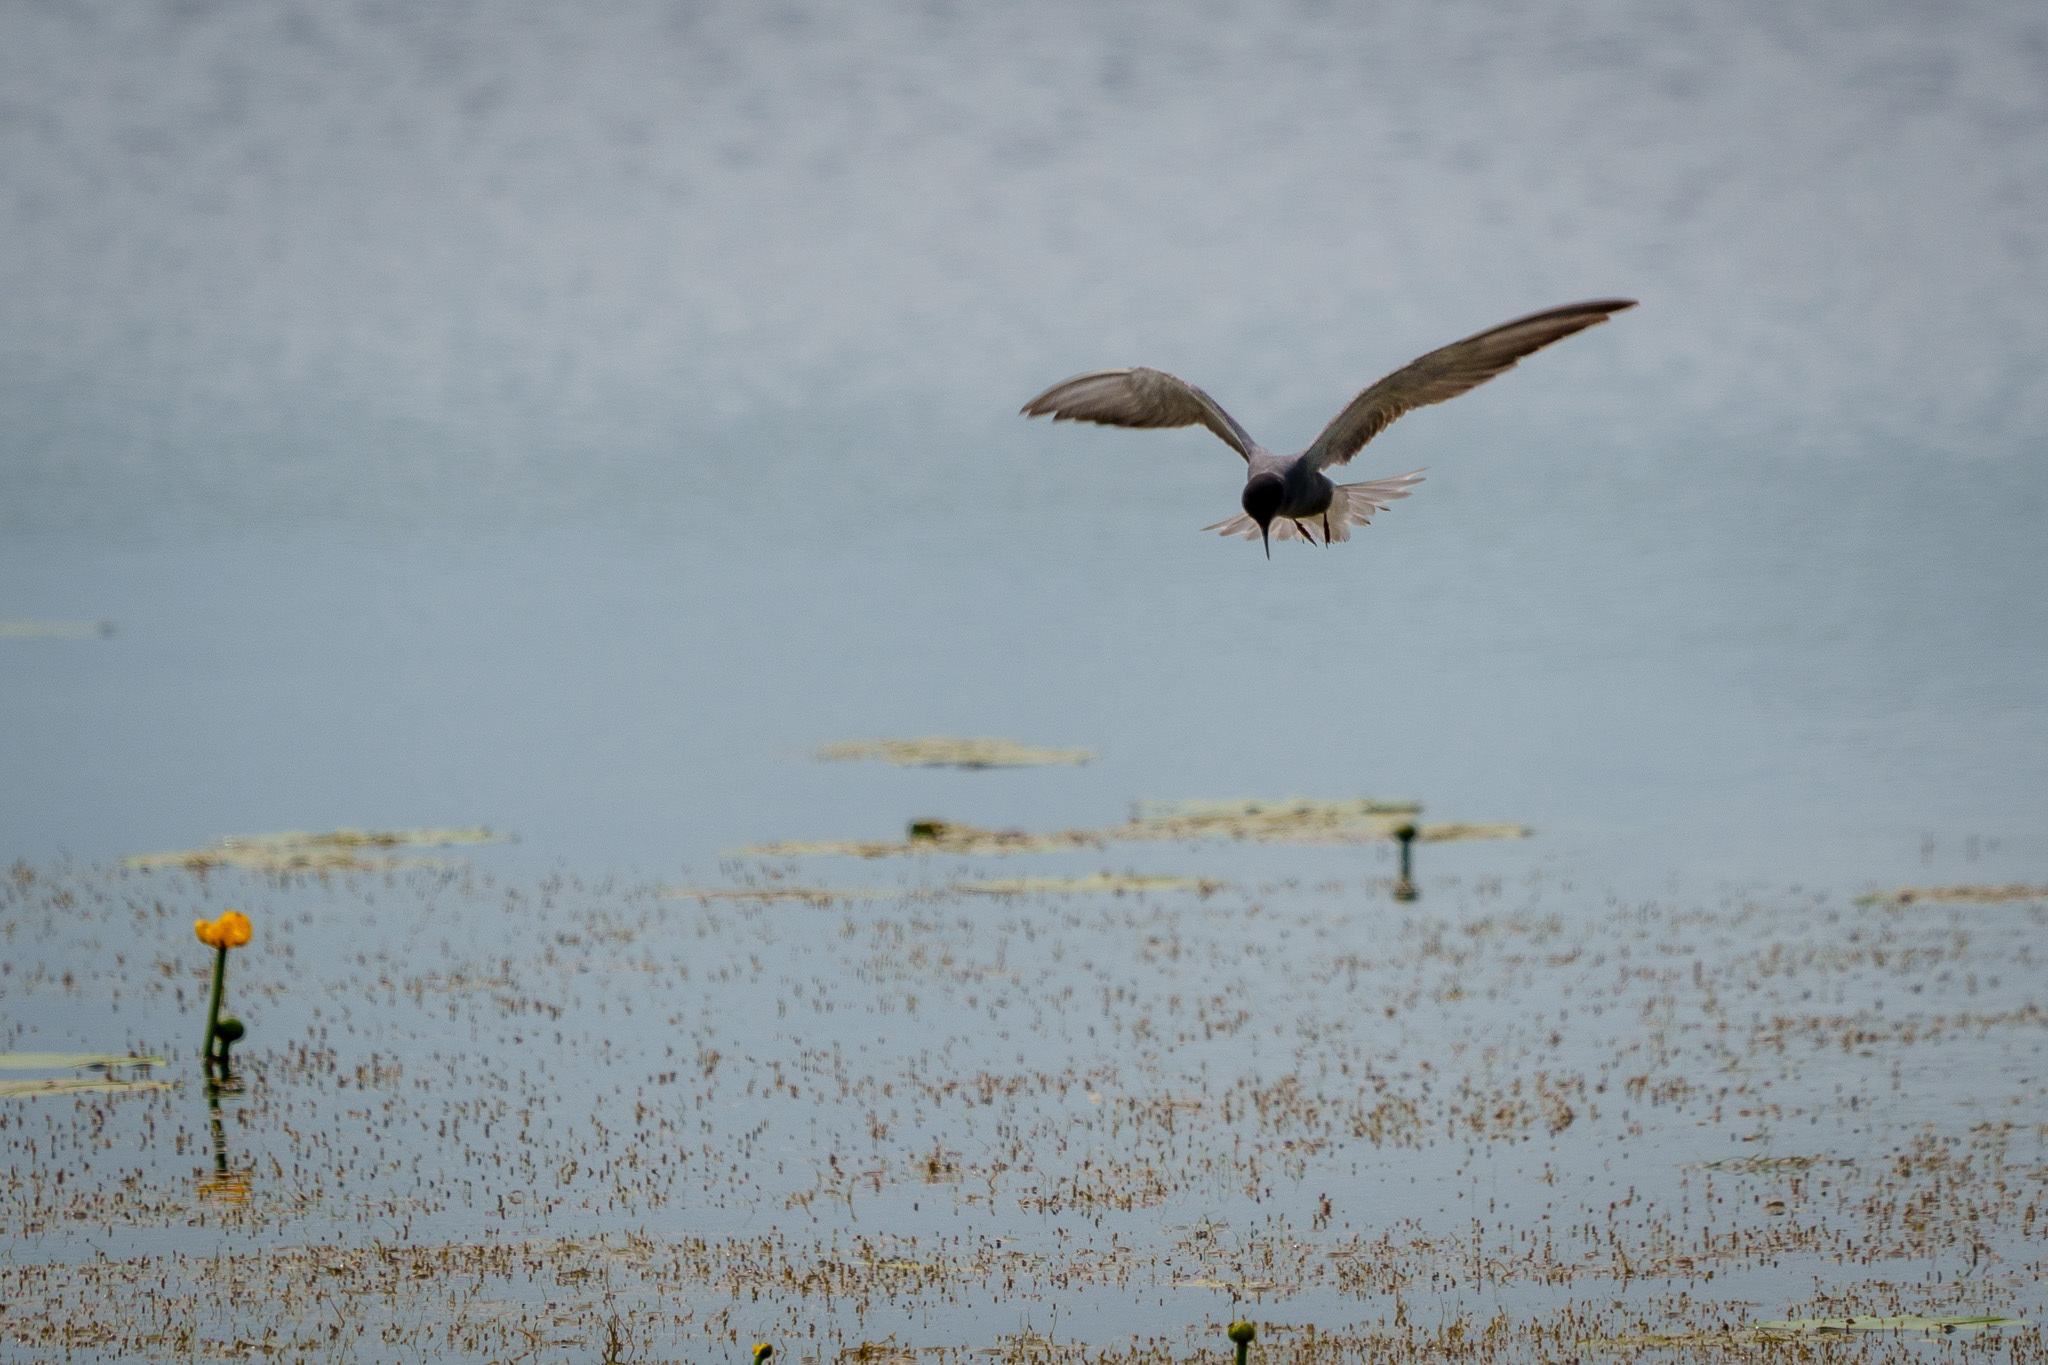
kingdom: Animalia
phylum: Chordata
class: Aves
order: Charadriiformes
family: Laridae
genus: Chlidonias
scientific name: Chlidonias niger
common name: Black tern
